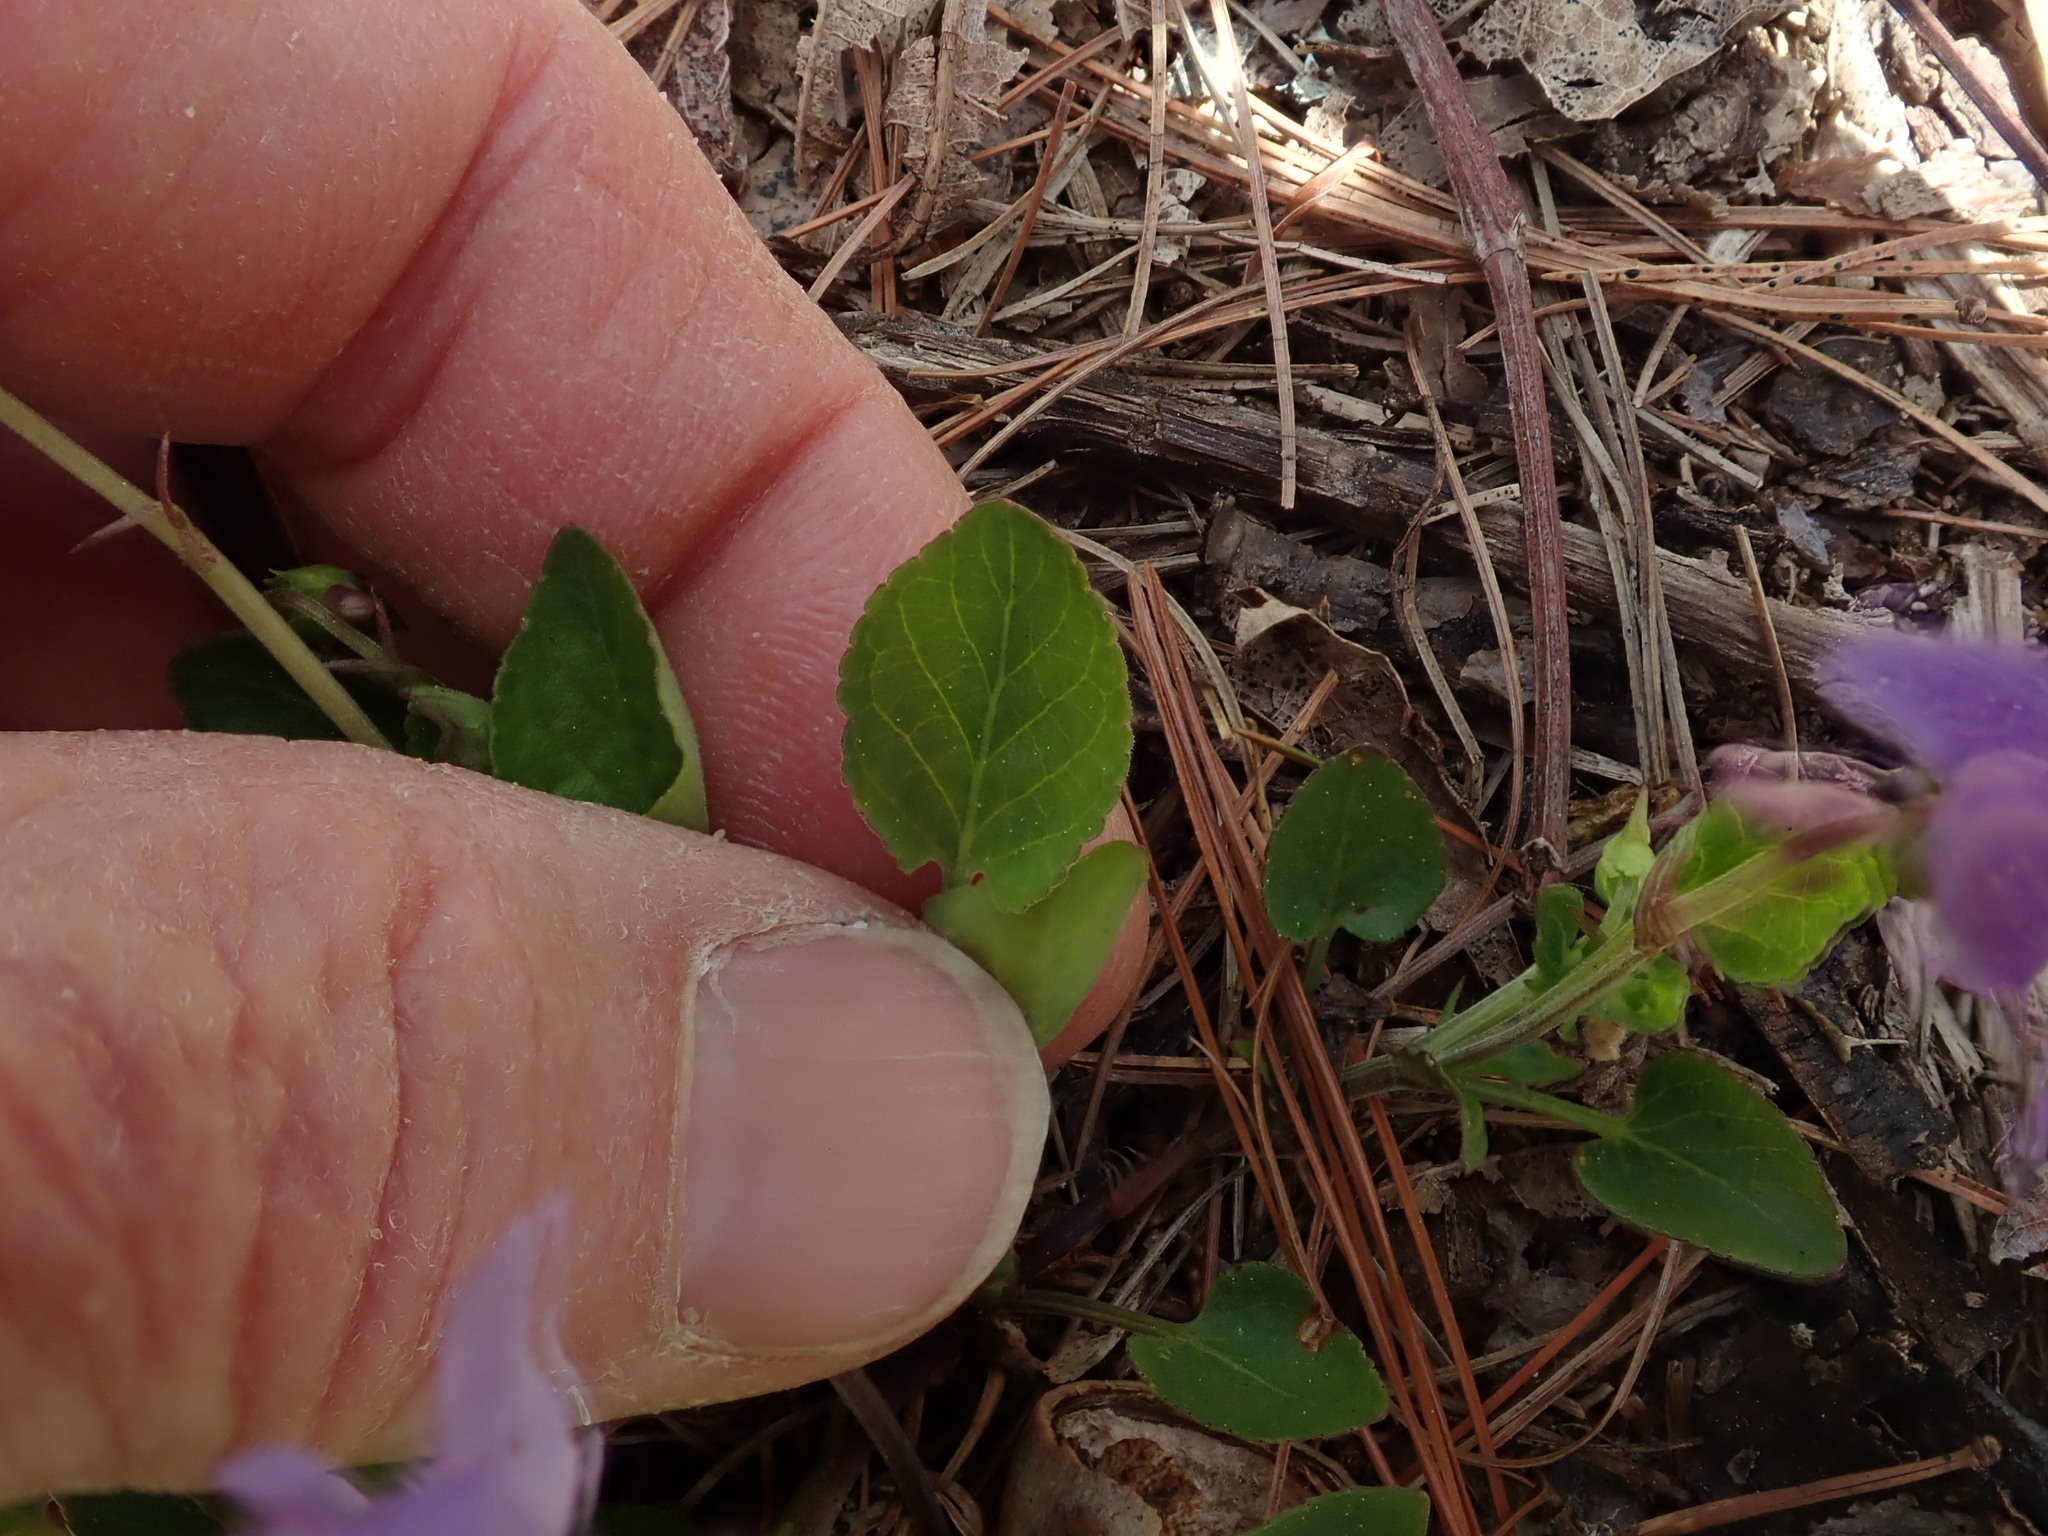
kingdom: Plantae
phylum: Tracheophyta
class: Magnoliopsida
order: Malpighiales
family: Violaceae
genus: Viola
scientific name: Viola labradorica
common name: Labrador violet
